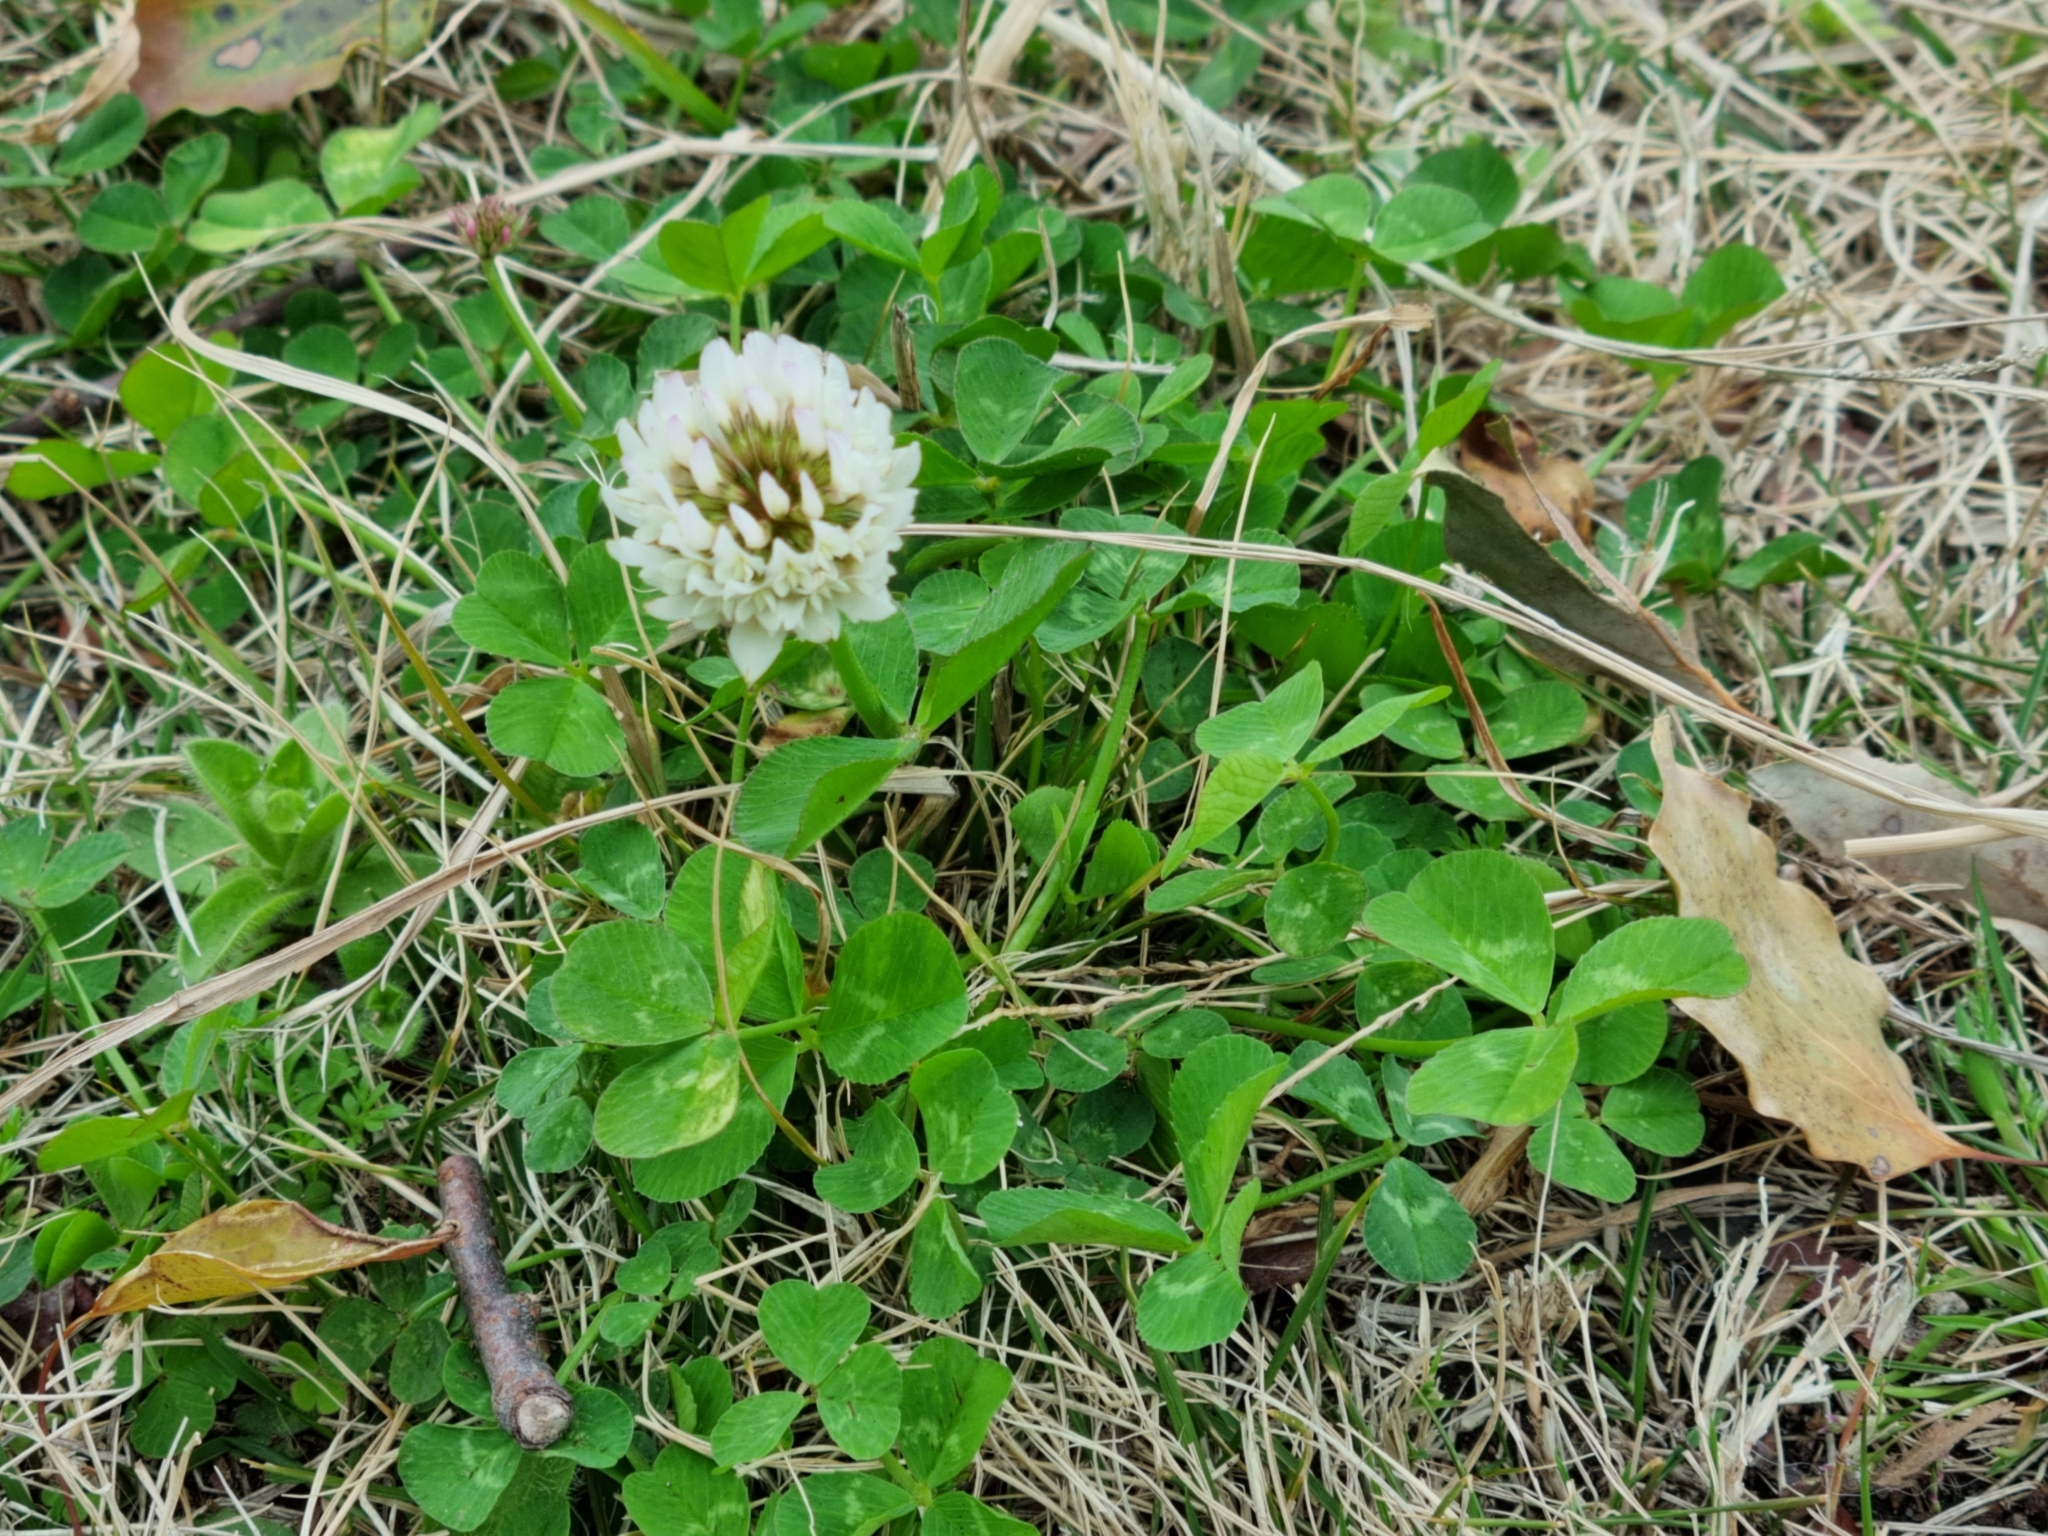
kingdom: Plantae
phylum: Tracheophyta
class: Magnoliopsida
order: Fabales
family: Fabaceae
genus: Trifolium
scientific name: Trifolium repens
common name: White clover
